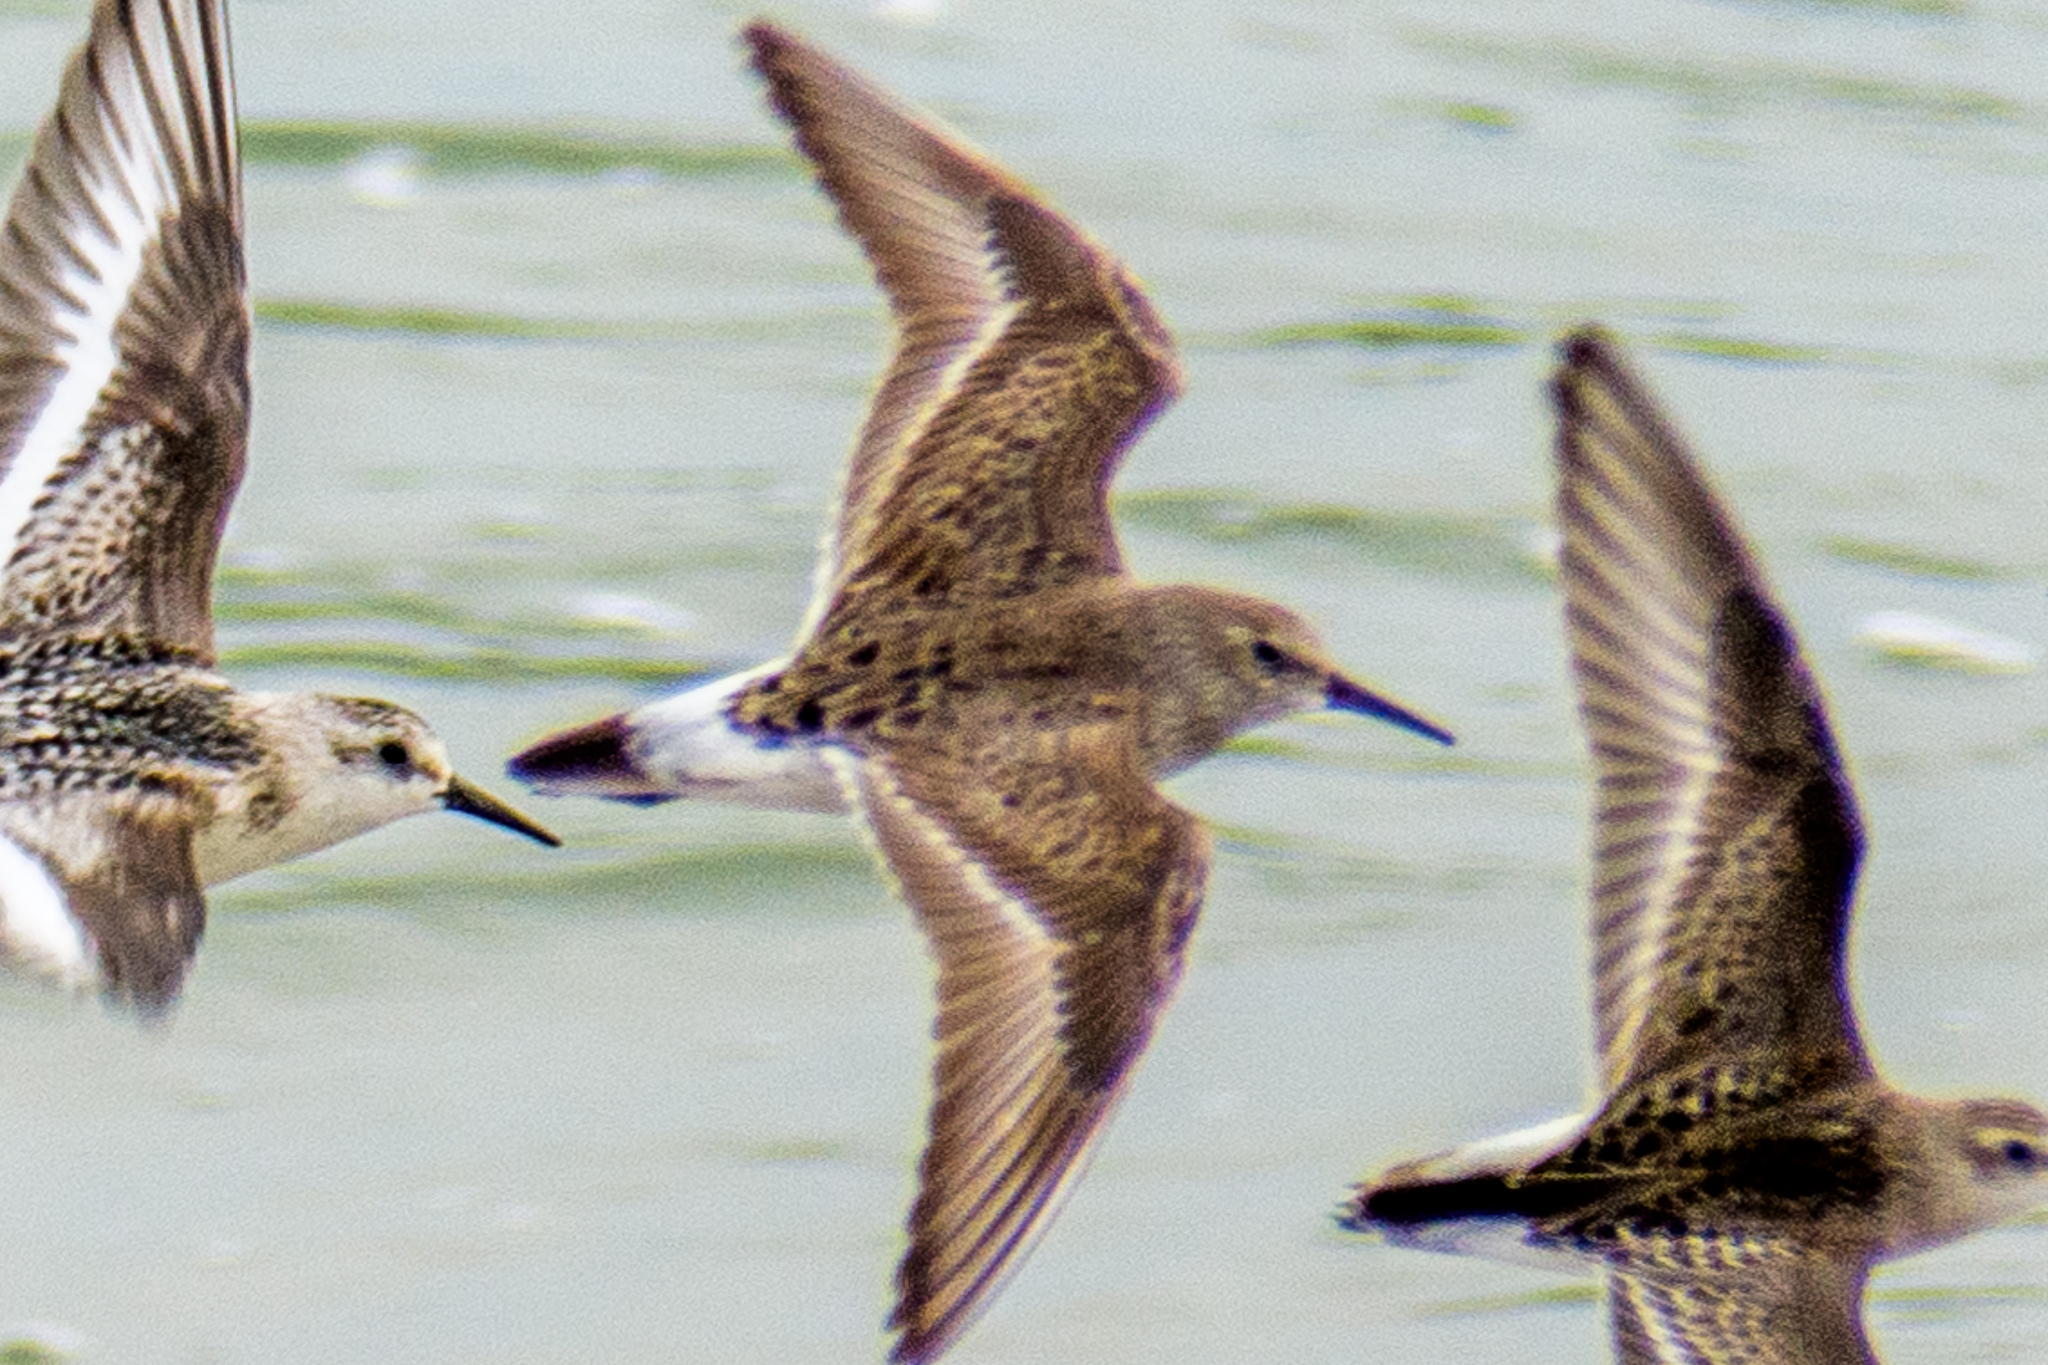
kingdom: Animalia
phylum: Chordata
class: Aves
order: Charadriiformes
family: Scolopacidae
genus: Calidris
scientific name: Calidris fuscicollis
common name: White-rumped sandpiper
